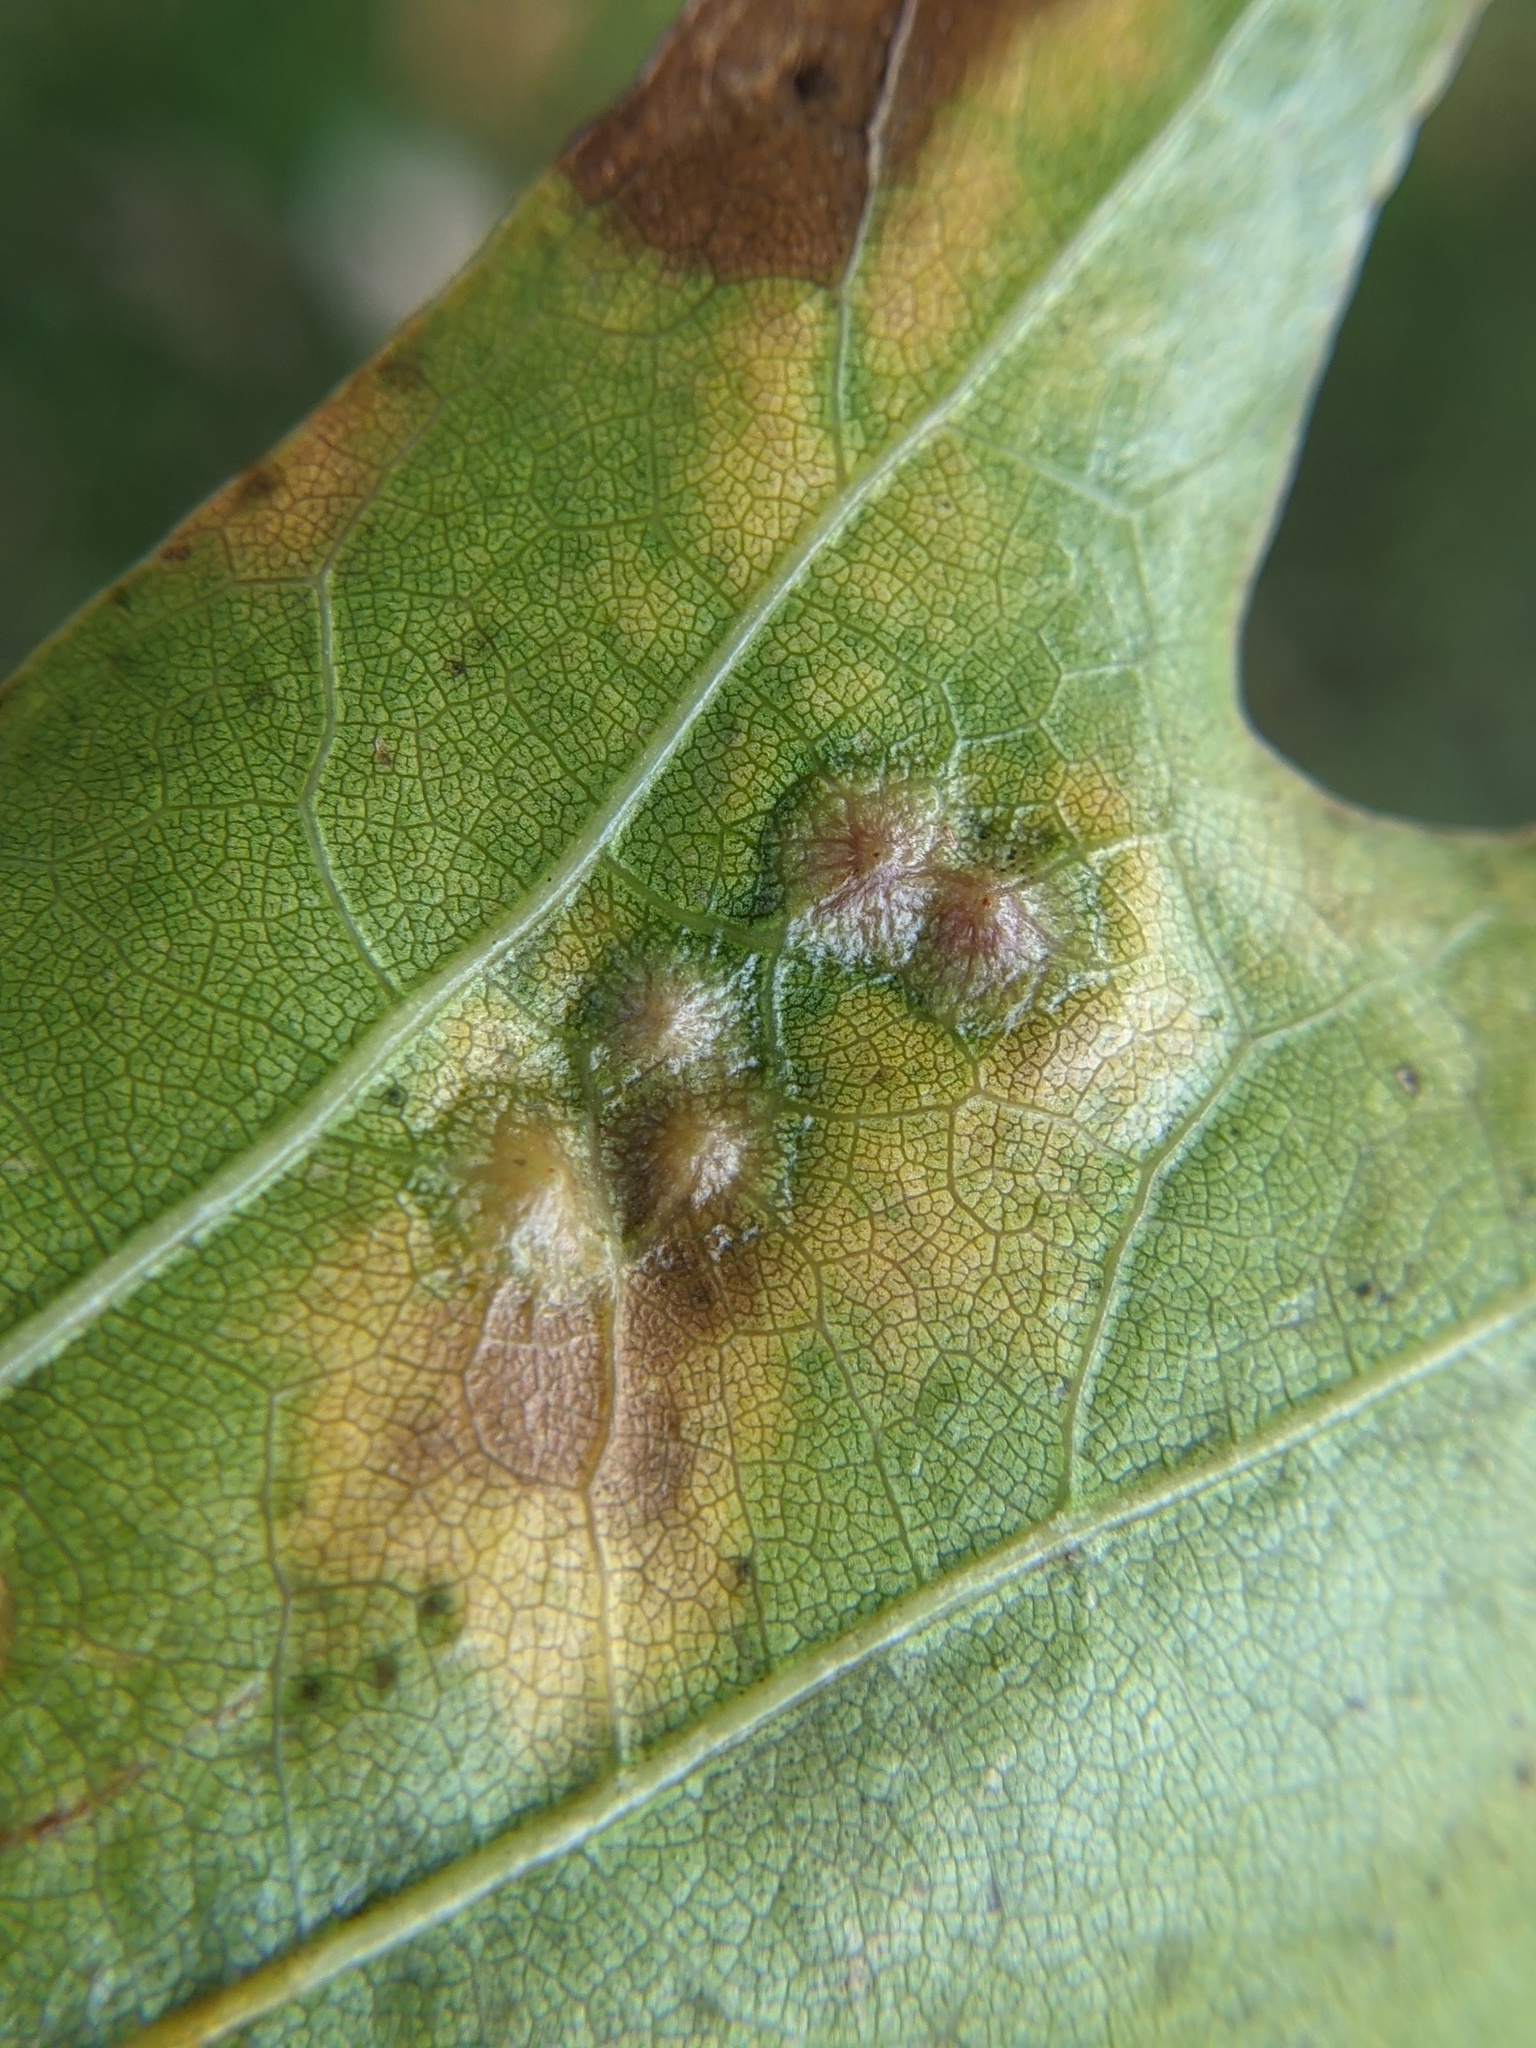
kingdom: Animalia
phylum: Arthropoda
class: Insecta
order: Diptera
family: Cecidomyiidae
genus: Polystepha
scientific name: Polystepha pilulae
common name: Oak leaf gall midge
